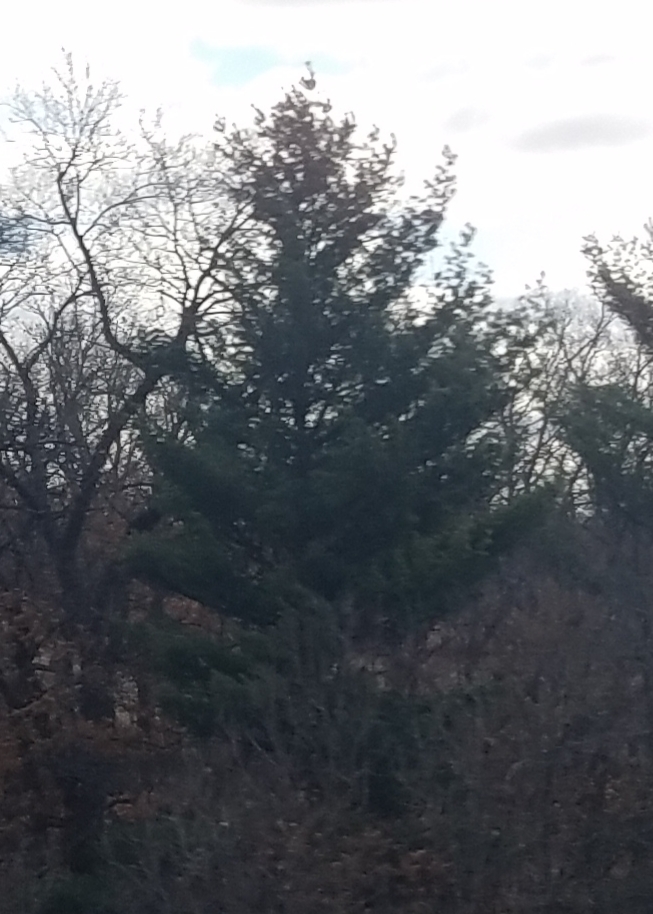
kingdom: Plantae
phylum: Tracheophyta
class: Pinopsida
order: Pinales
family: Pinaceae
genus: Pinus
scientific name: Pinus strobus
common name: Weymouth pine
